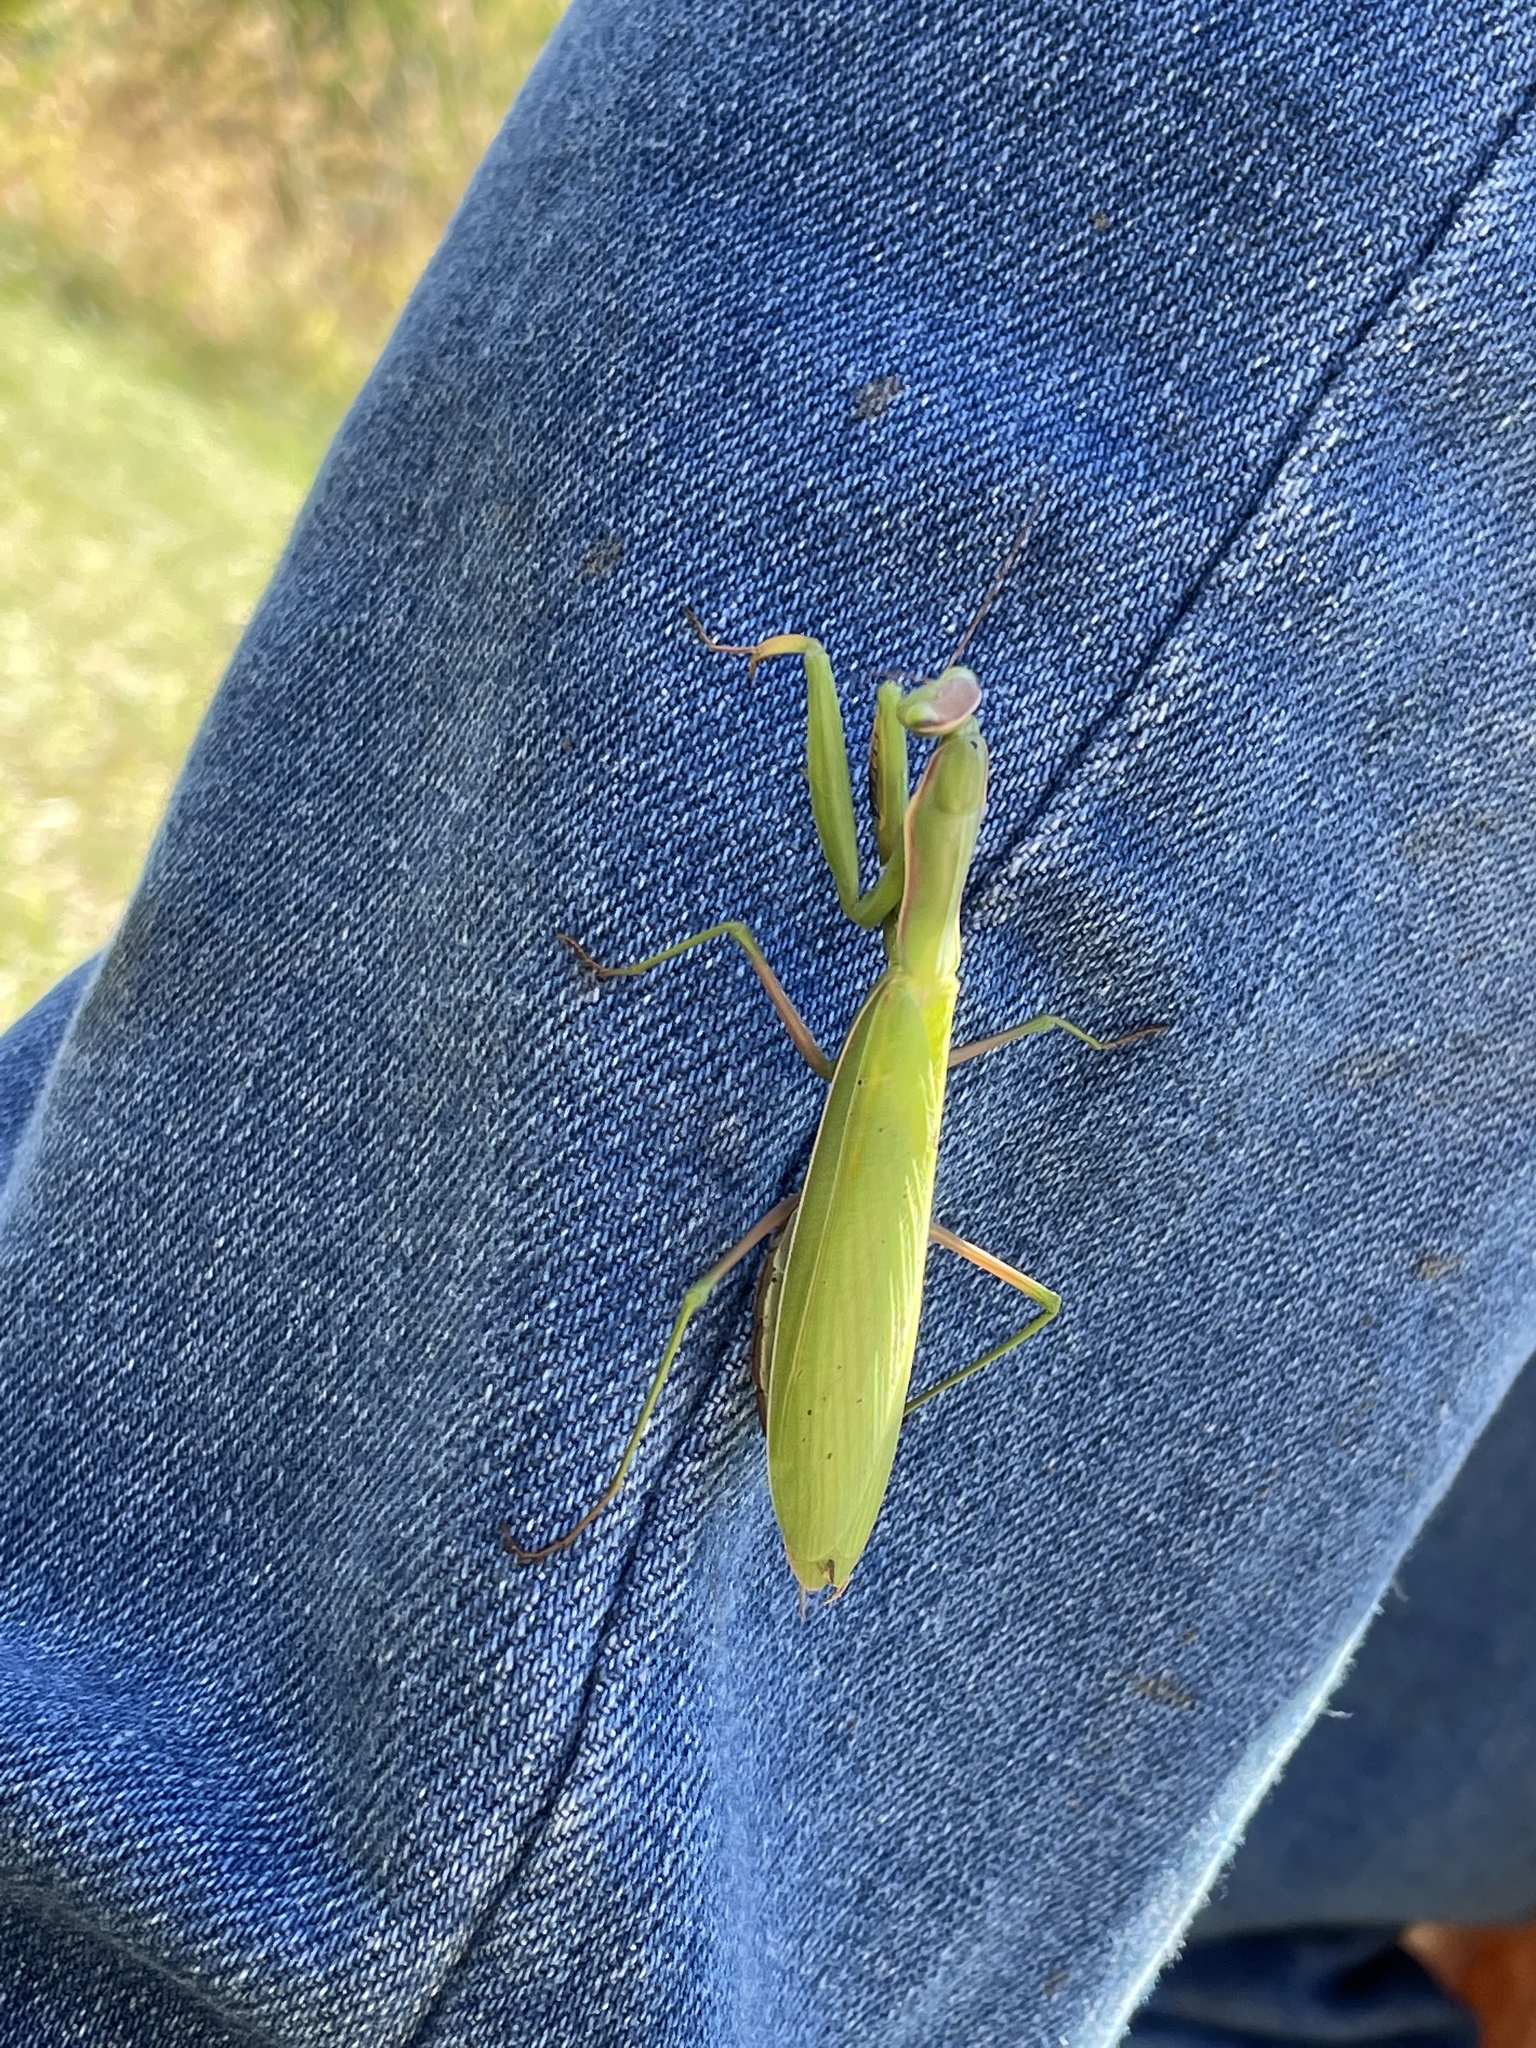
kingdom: Animalia
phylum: Arthropoda
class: Insecta
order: Mantodea
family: Mantidae
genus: Mantis
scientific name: Mantis religiosa
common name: Praying mantis
